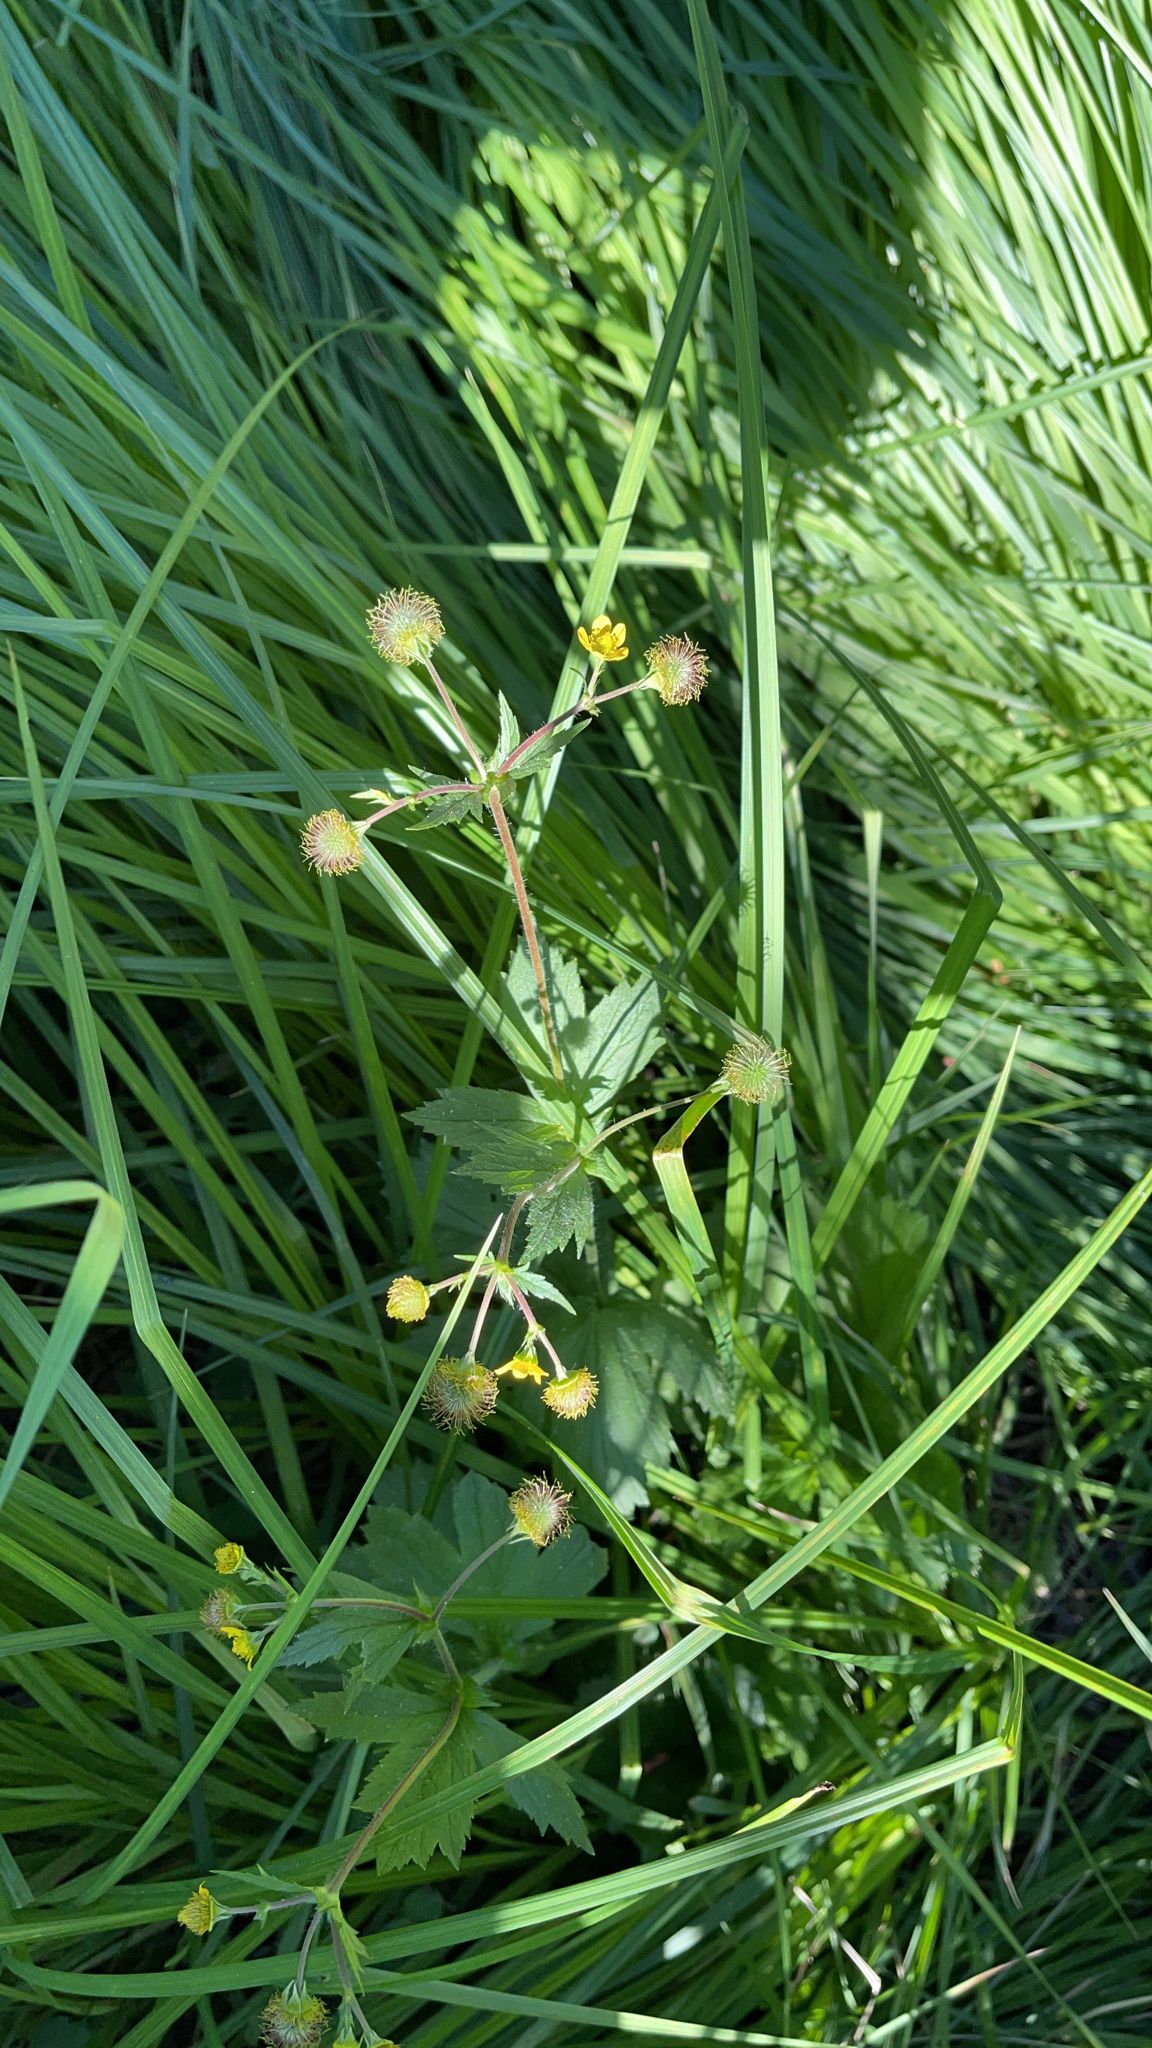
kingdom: Plantae
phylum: Tracheophyta
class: Magnoliopsida
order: Rosales
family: Rosaceae
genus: Geum
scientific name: Geum macrophyllum
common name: Large-leaved avens
